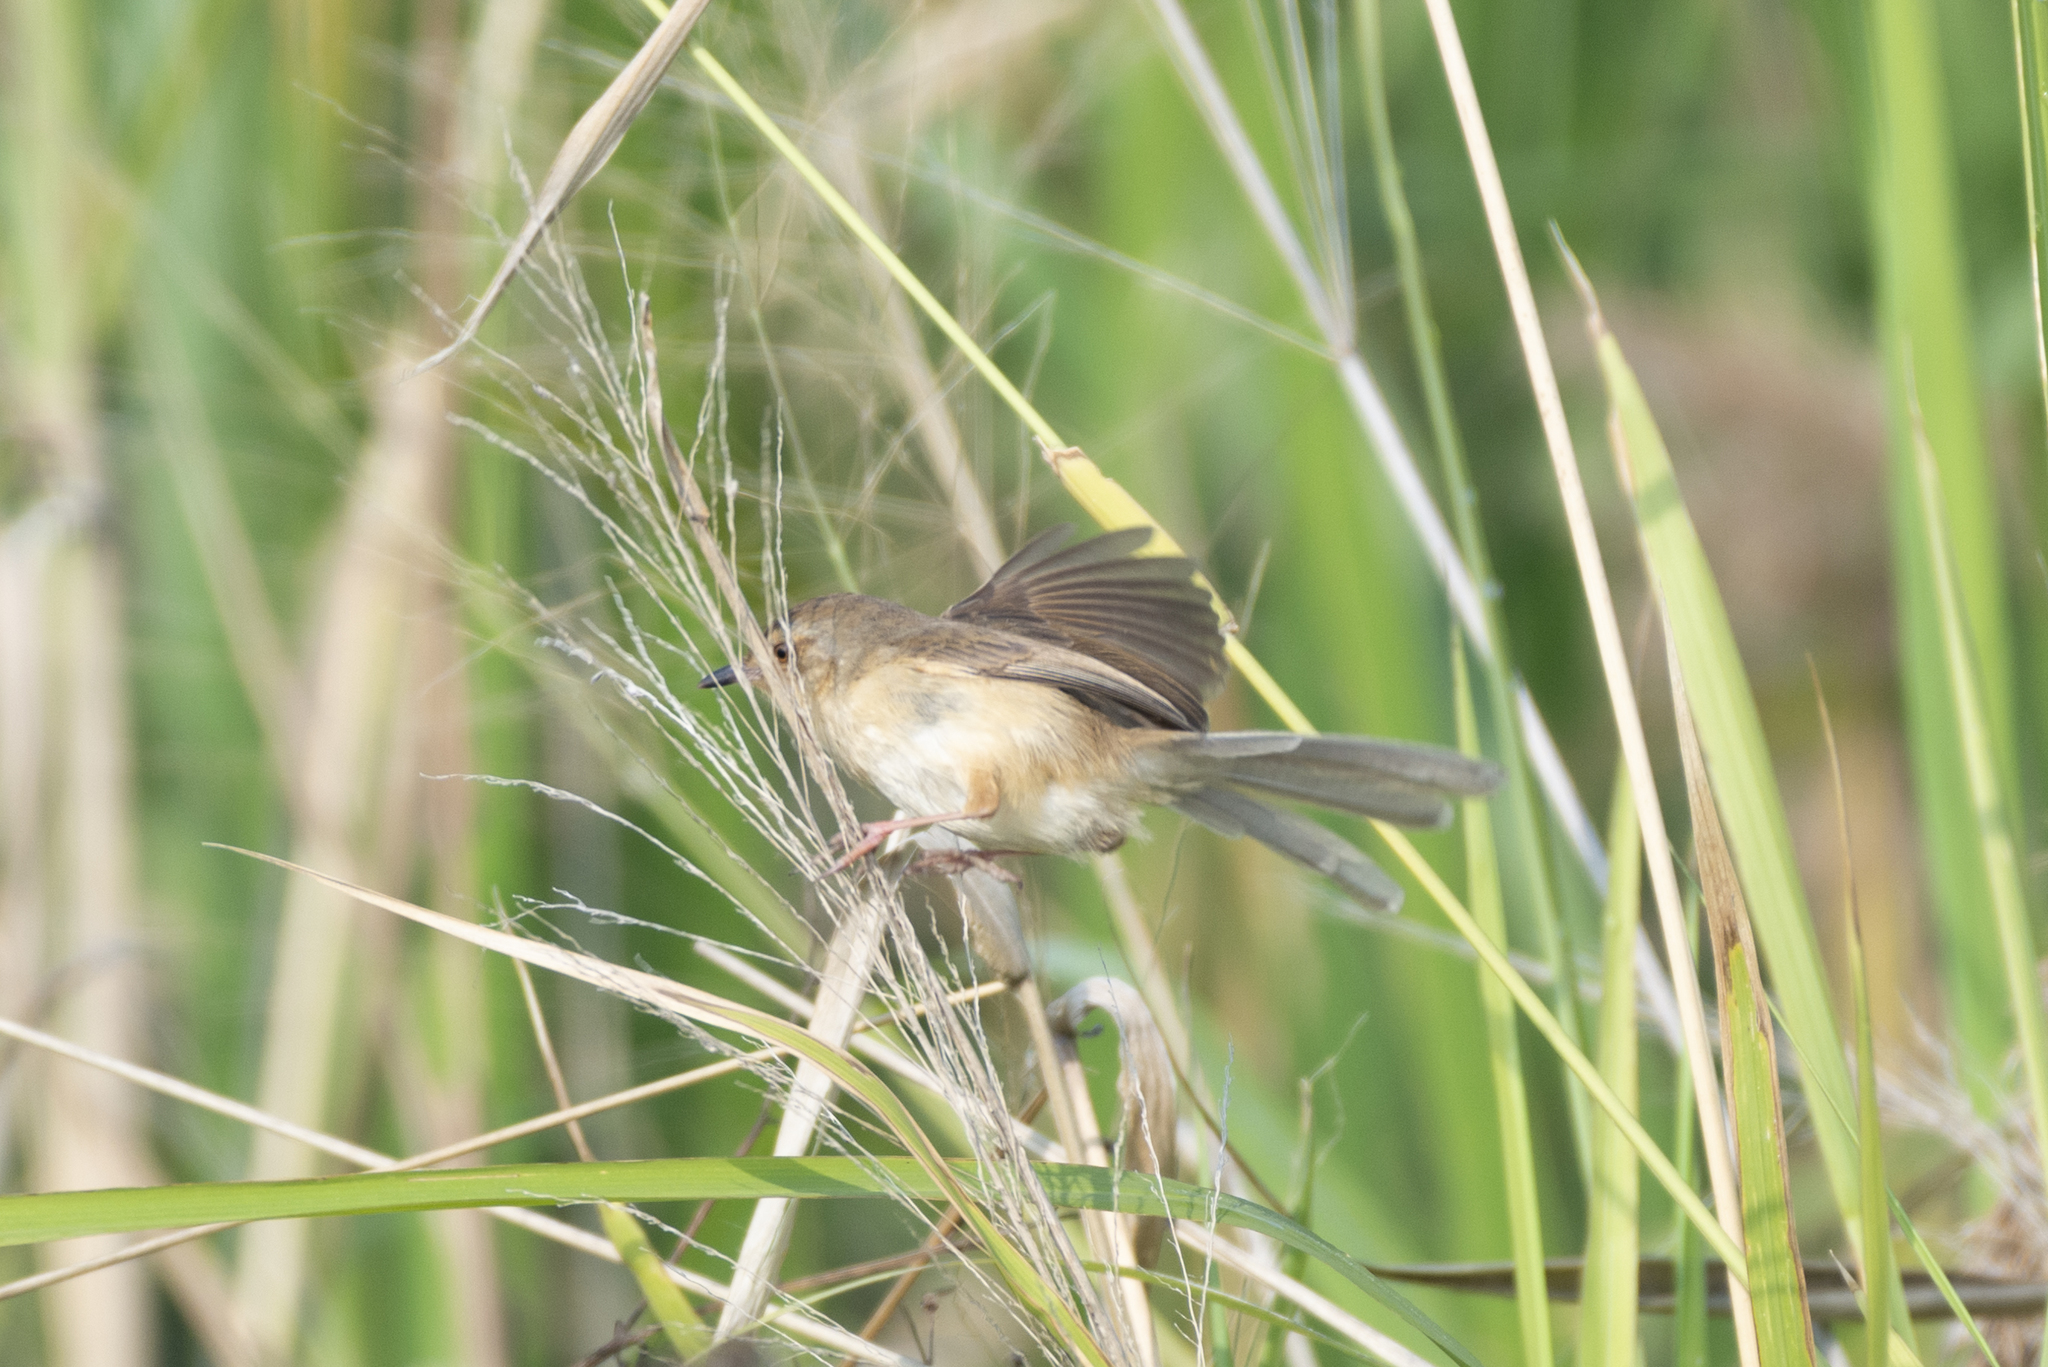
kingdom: Animalia
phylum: Chordata
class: Aves
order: Passeriformes
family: Cisticolidae
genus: Prinia
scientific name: Prinia inornata
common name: Plain prinia
